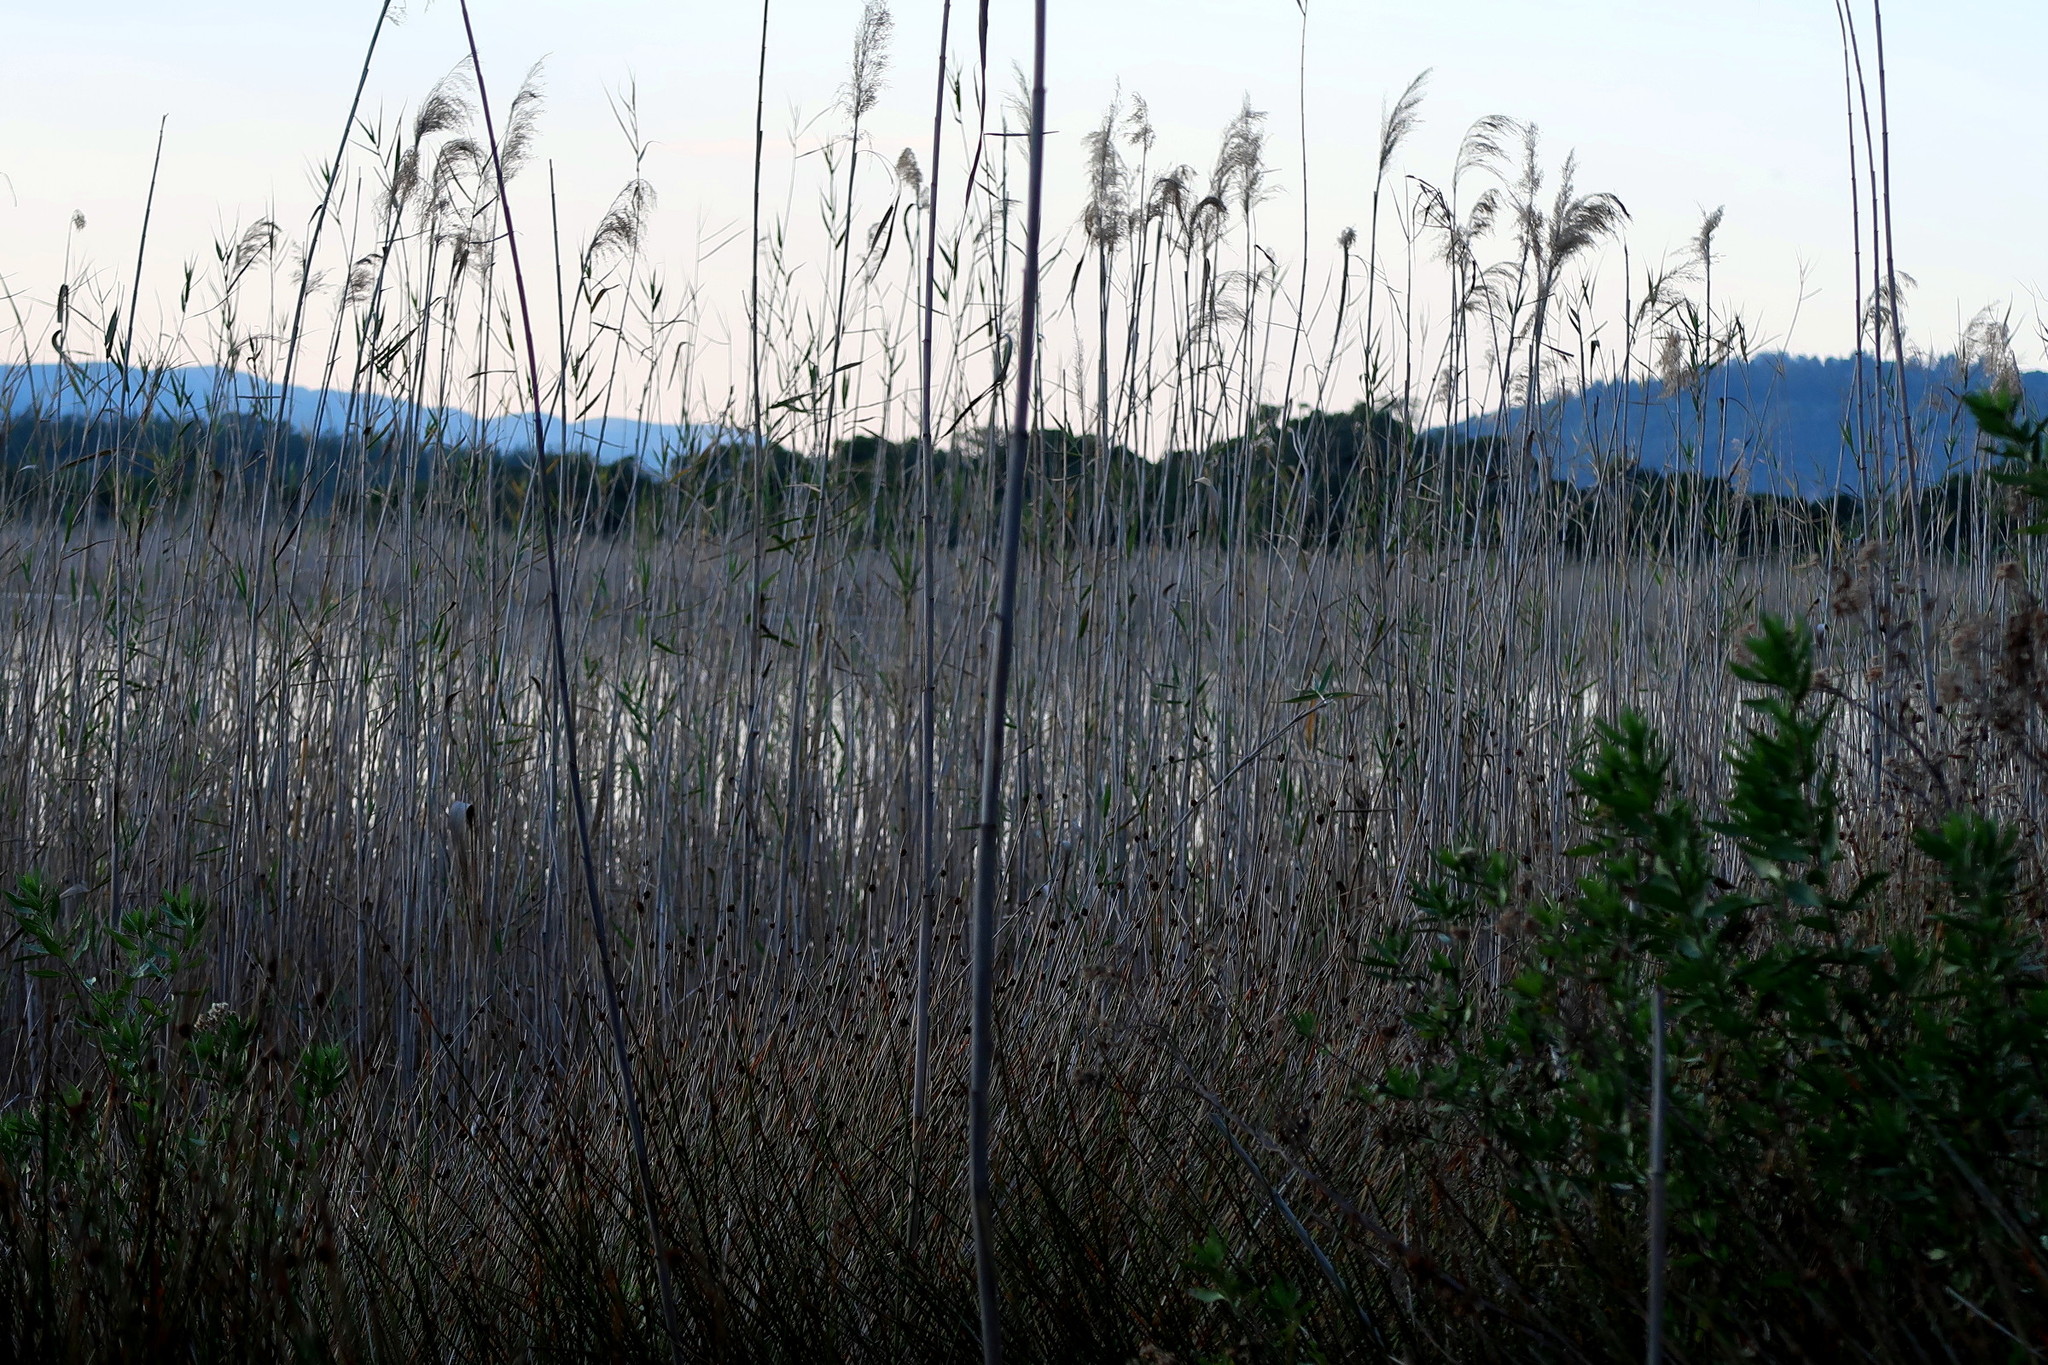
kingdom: Plantae
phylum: Tracheophyta
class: Liliopsida
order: Poales
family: Poaceae
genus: Phragmites
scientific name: Phragmites australis
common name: Common reed
